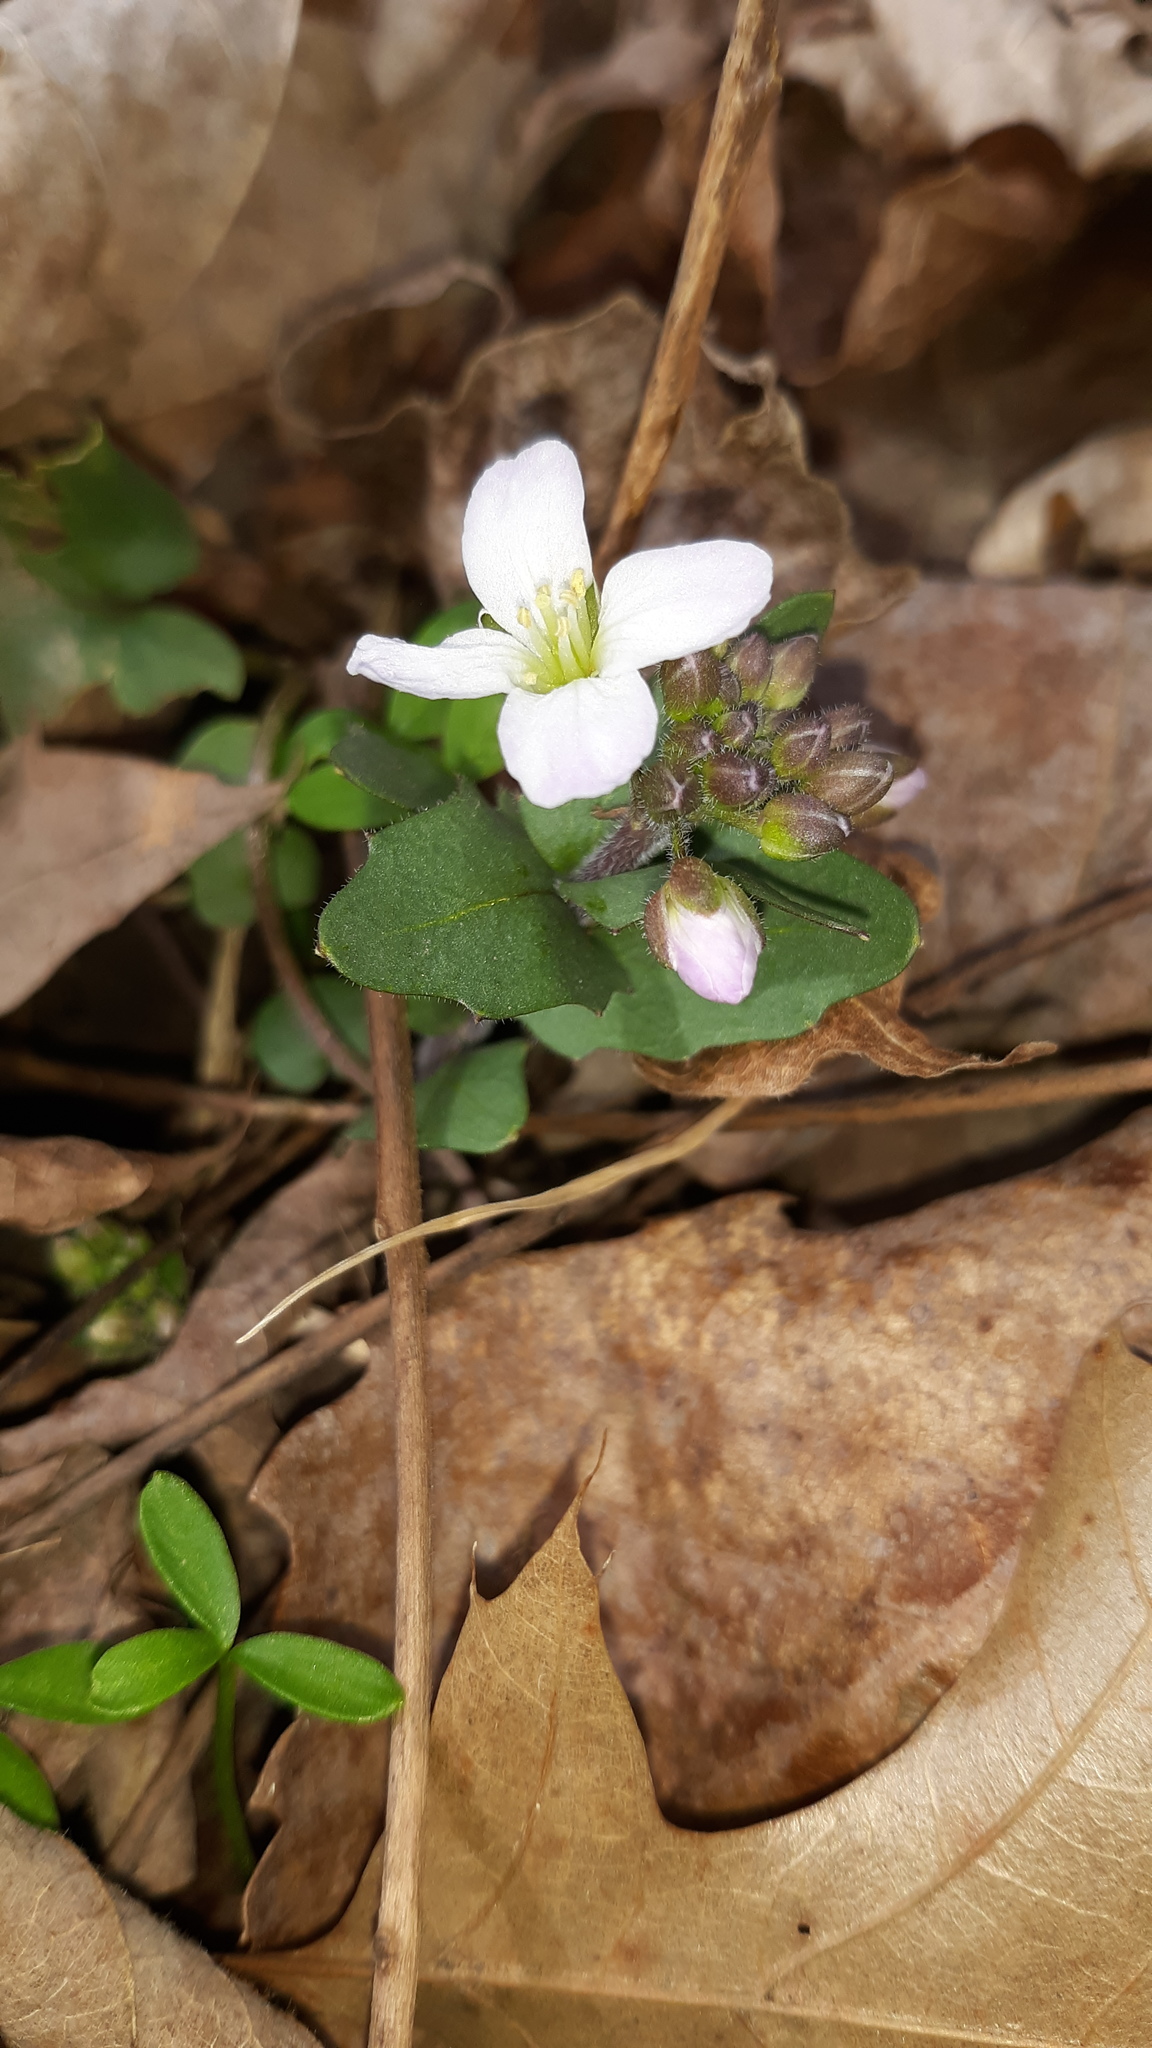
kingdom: Plantae
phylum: Tracheophyta
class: Magnoliopsida
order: Brassicales
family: Brassicaceae
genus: Cardamine
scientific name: Cardamine douglassii
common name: Purple cress
